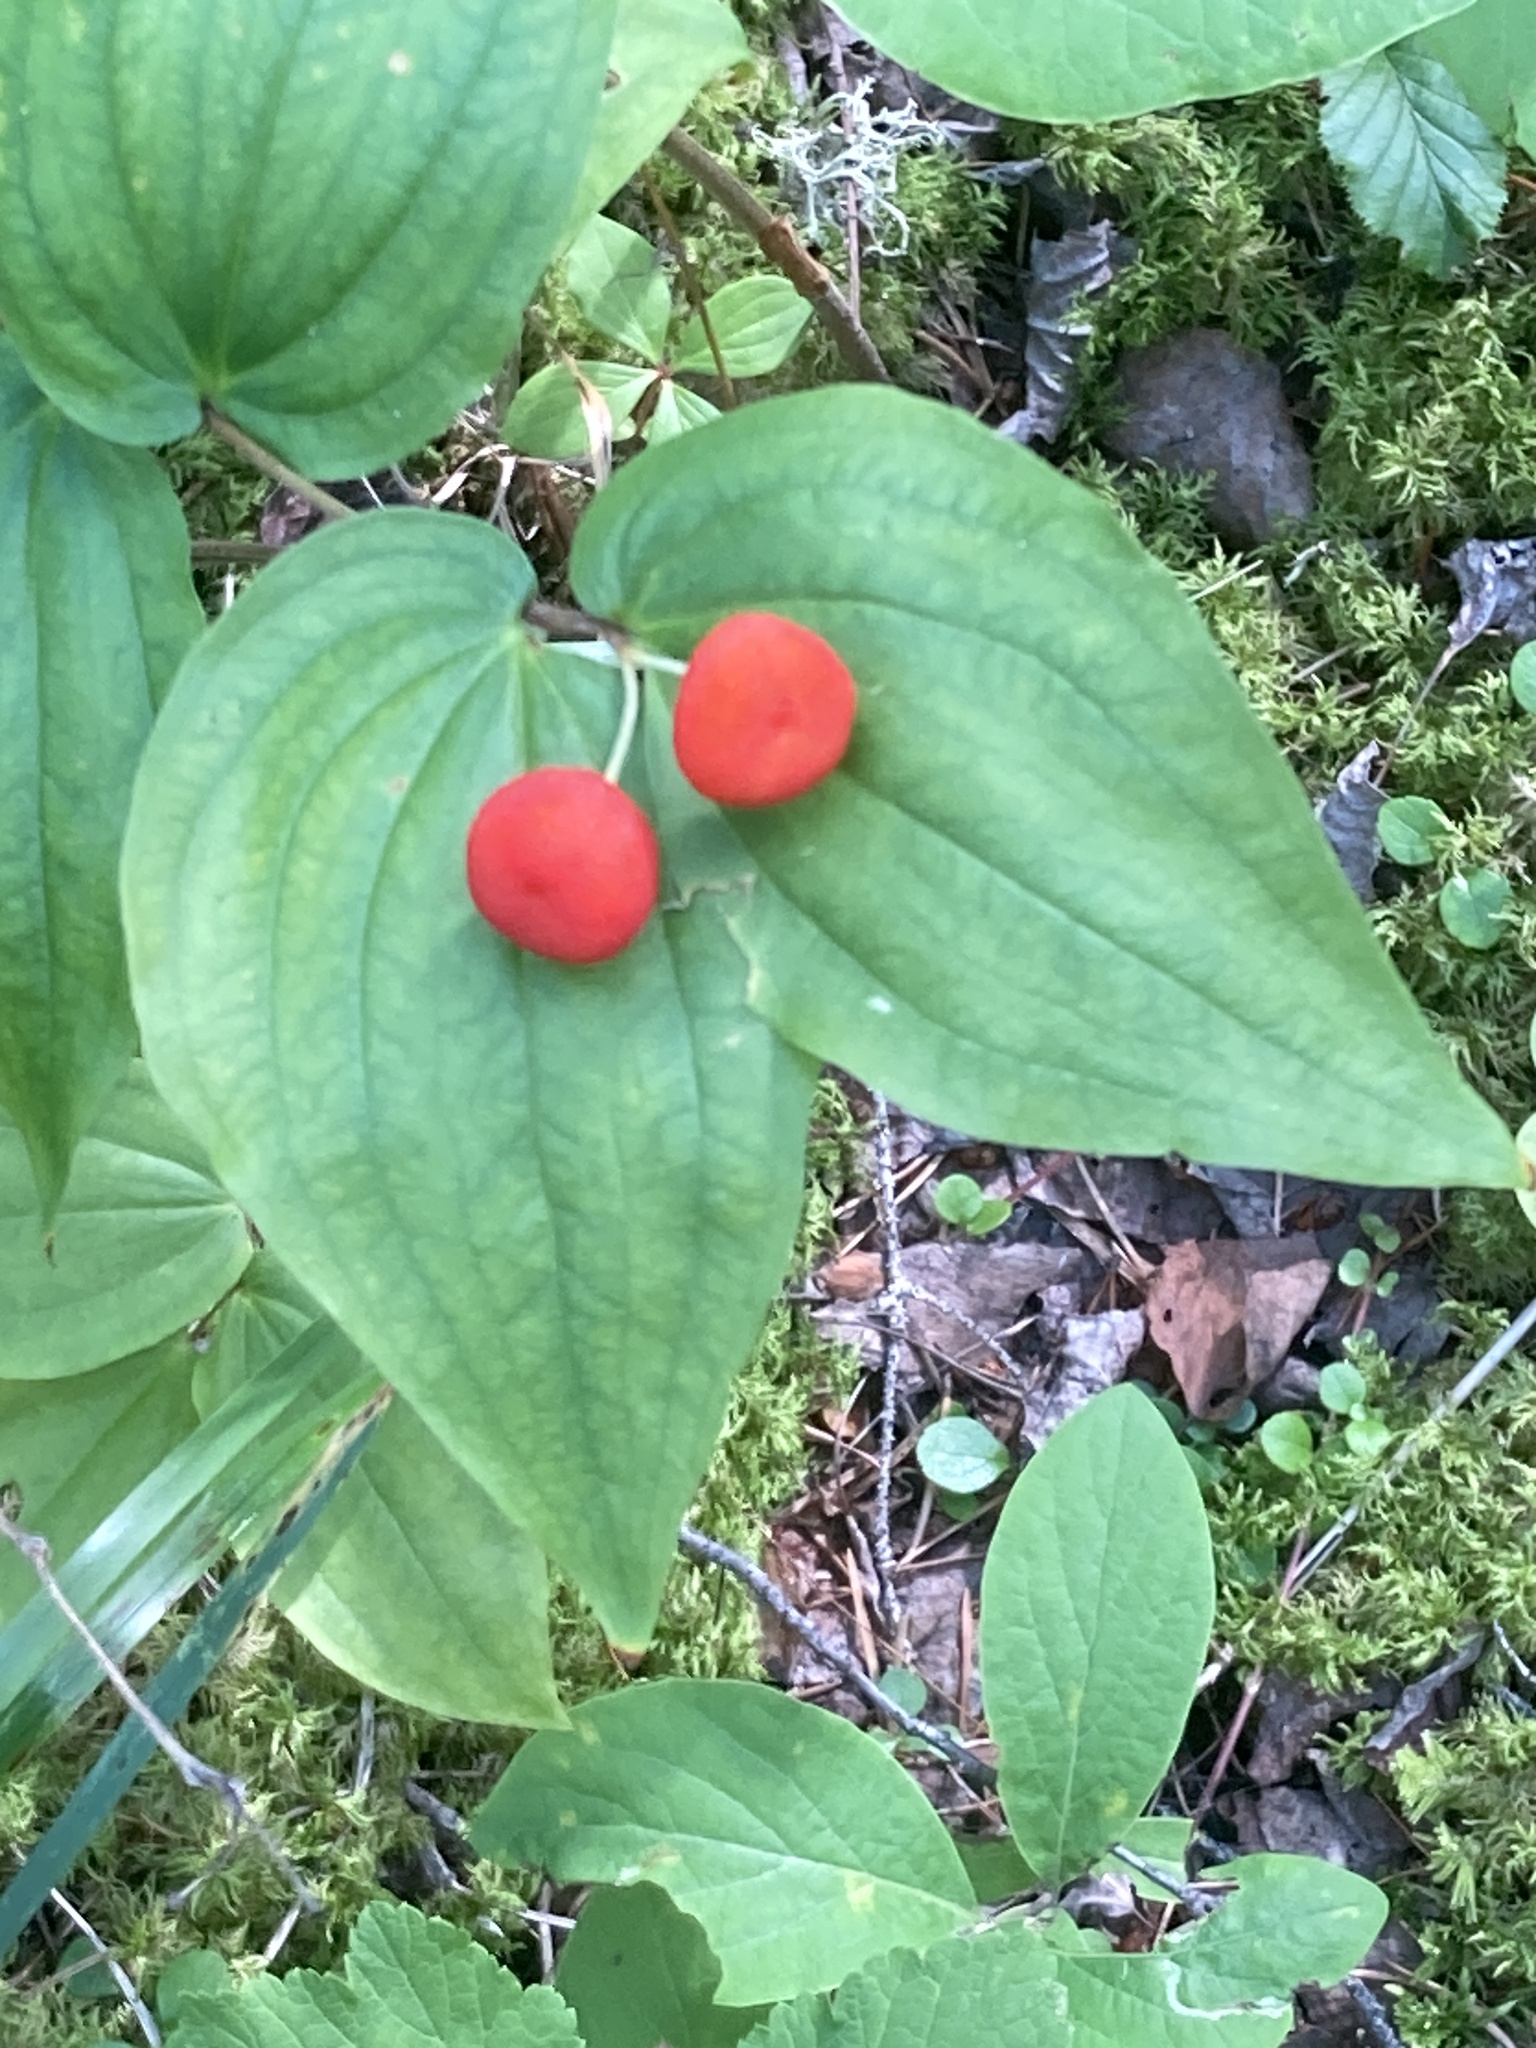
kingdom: Plantae
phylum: Tracheophyta
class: Liliopsida
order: Liliales
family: Liliaceae
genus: Prosartes
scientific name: Prosartes trachycarpa
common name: Rough-fruit fairy-bells
